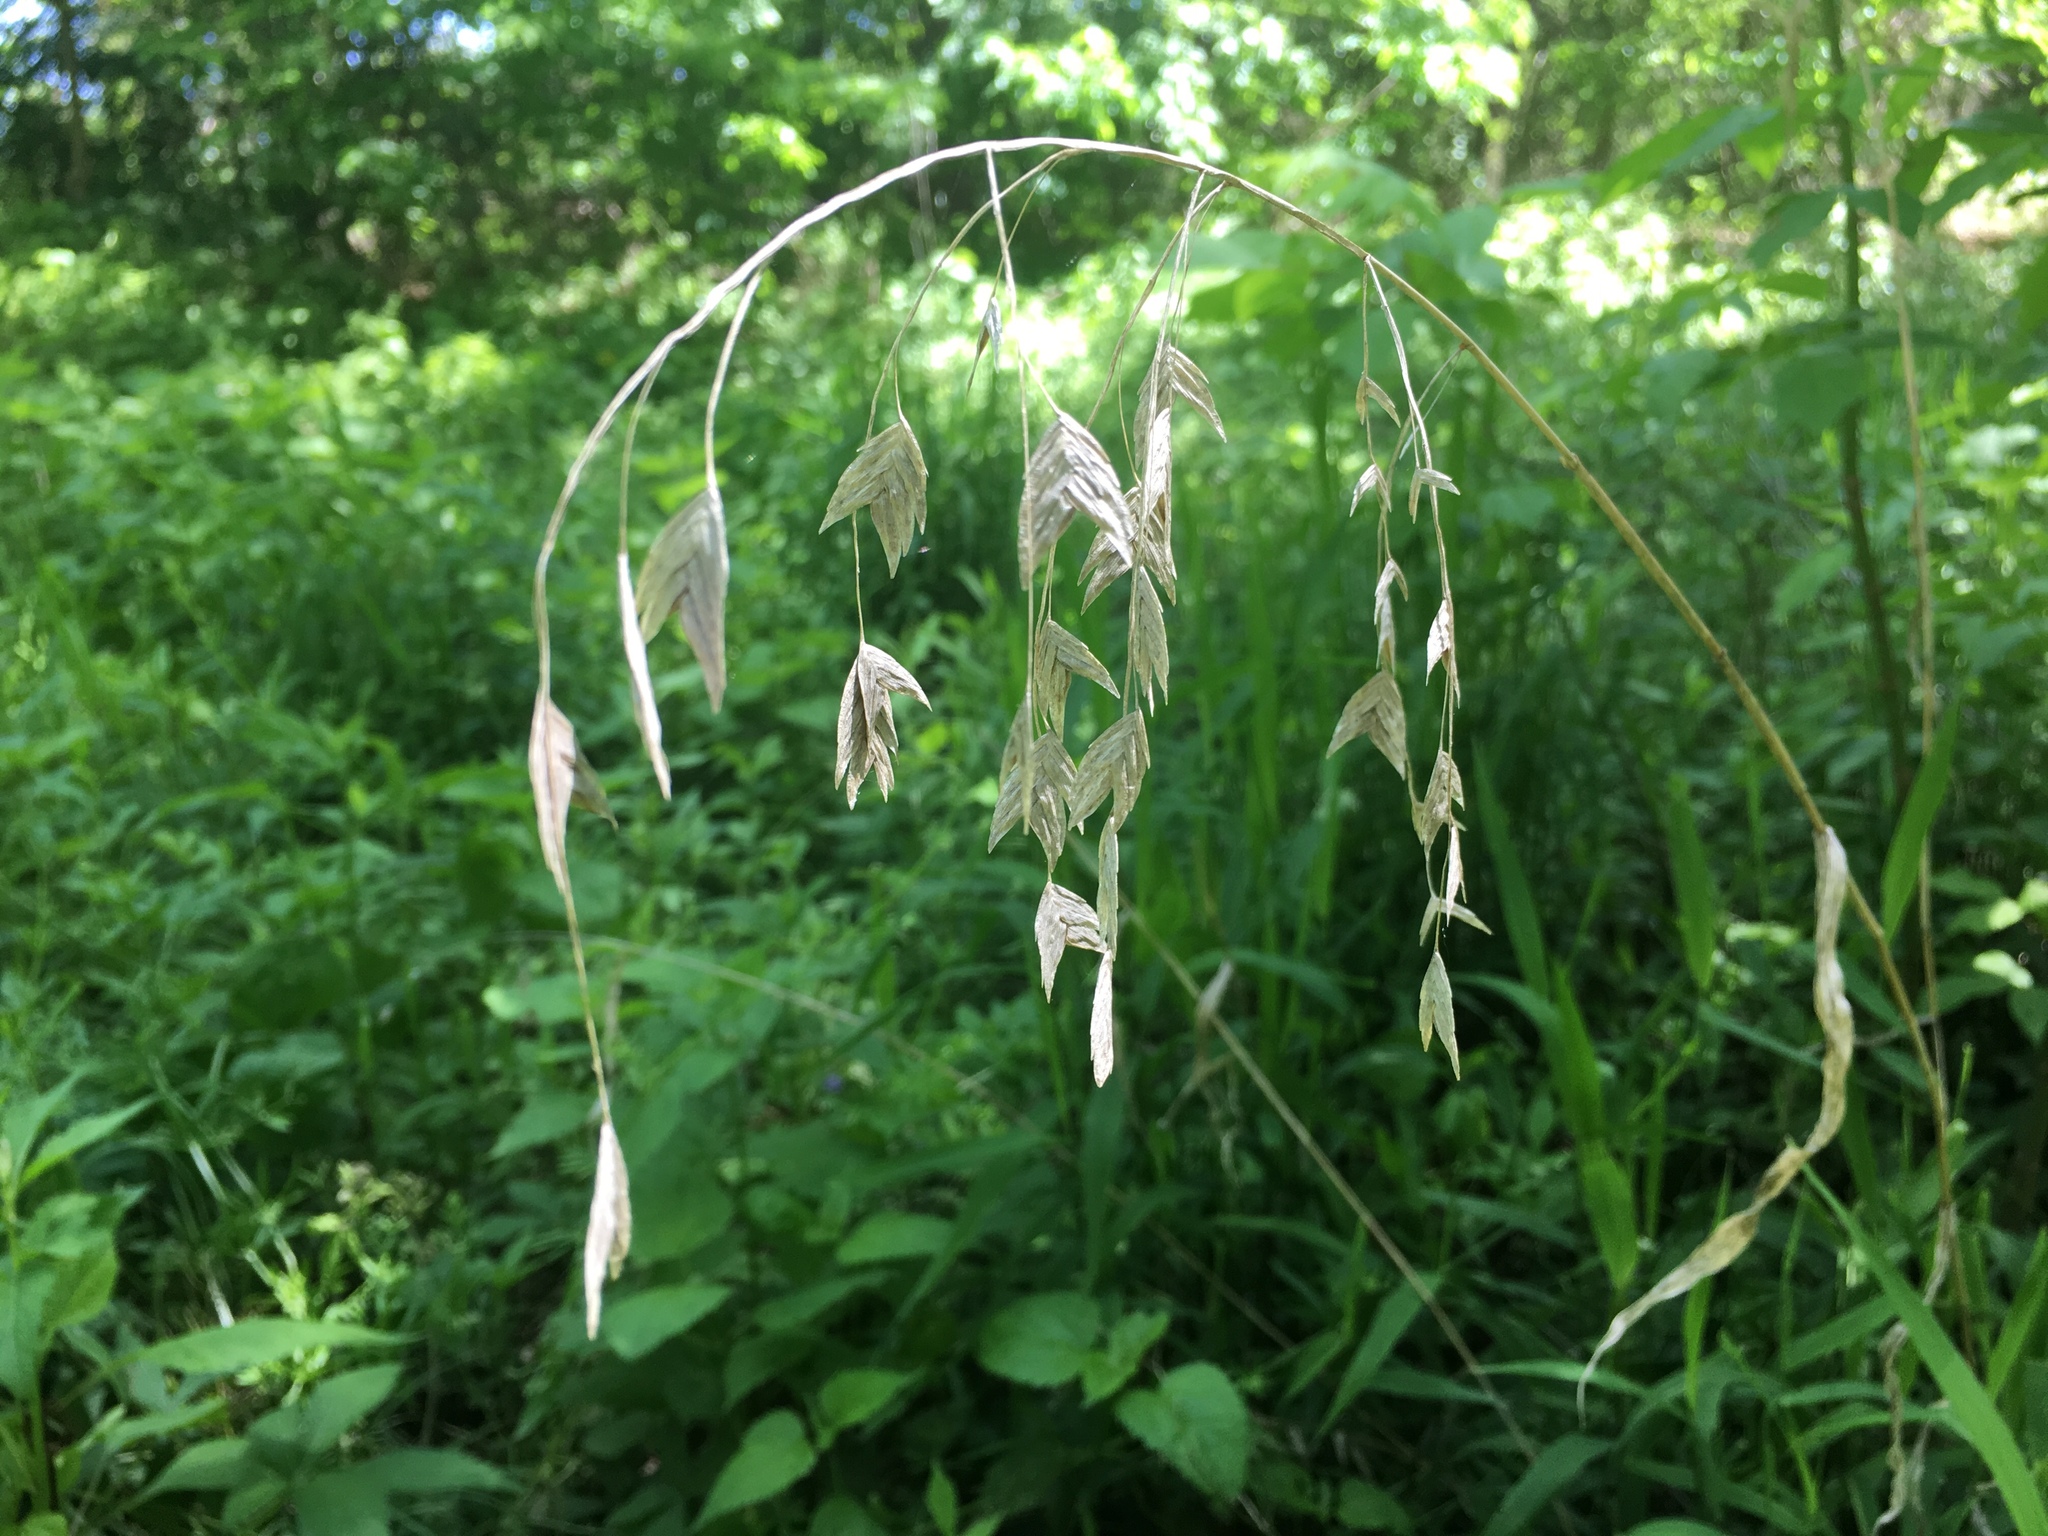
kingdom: Plantae
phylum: Tracheophyta
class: Liliopsida
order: Poales
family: Poaceae
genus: Chasmanthium
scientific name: Chasmanthium latifolium
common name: Broad-leaved chasmanthium
